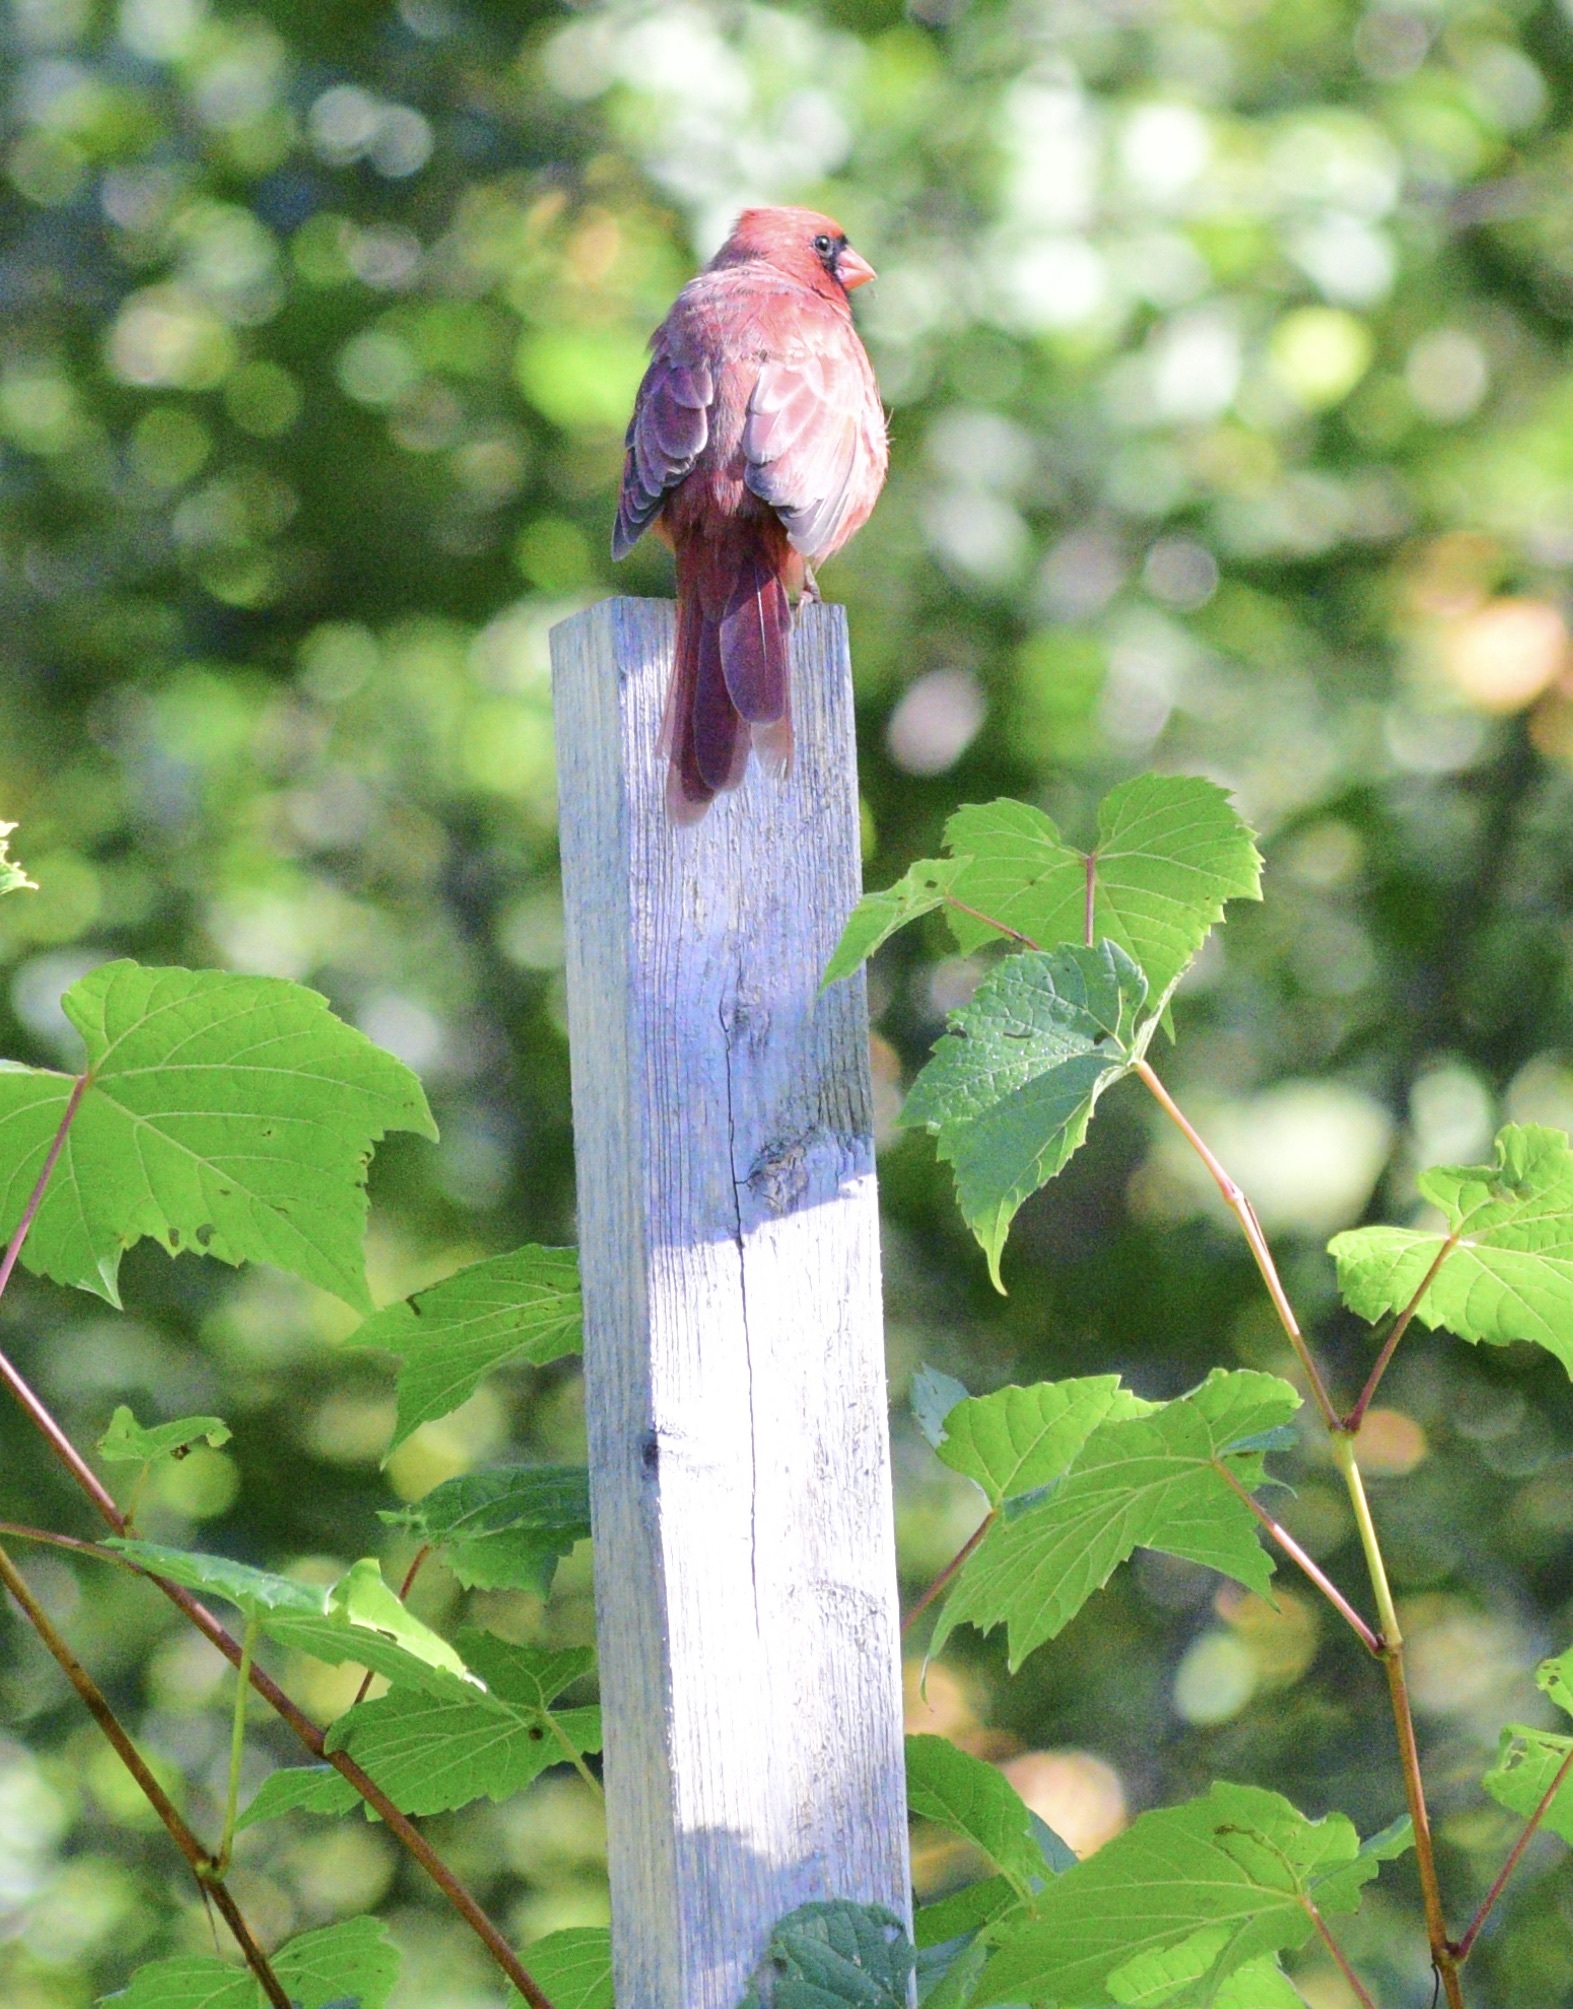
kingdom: Animalia
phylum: Chordata
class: Aves
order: Passeriformes
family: Cardinalidae
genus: Cardinalis
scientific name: Cardinalis cardinalis
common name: Northern cardinal
